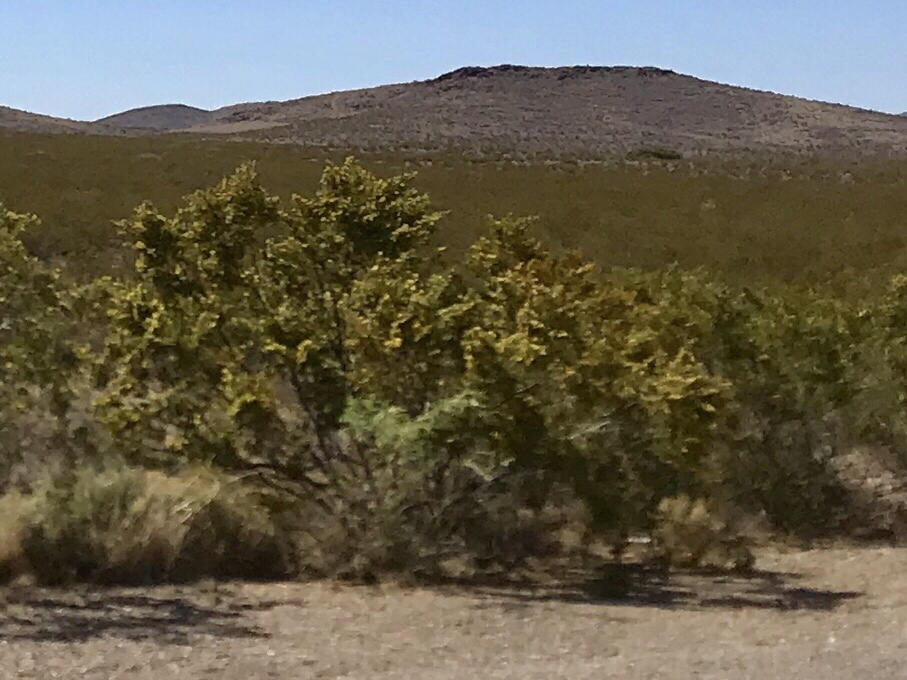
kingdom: Plantae
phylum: Tracheophyta
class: Magnoliopsida
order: Zygophyllales
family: Zygophyllaceae
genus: Larrea
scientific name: Larrea tridentata
